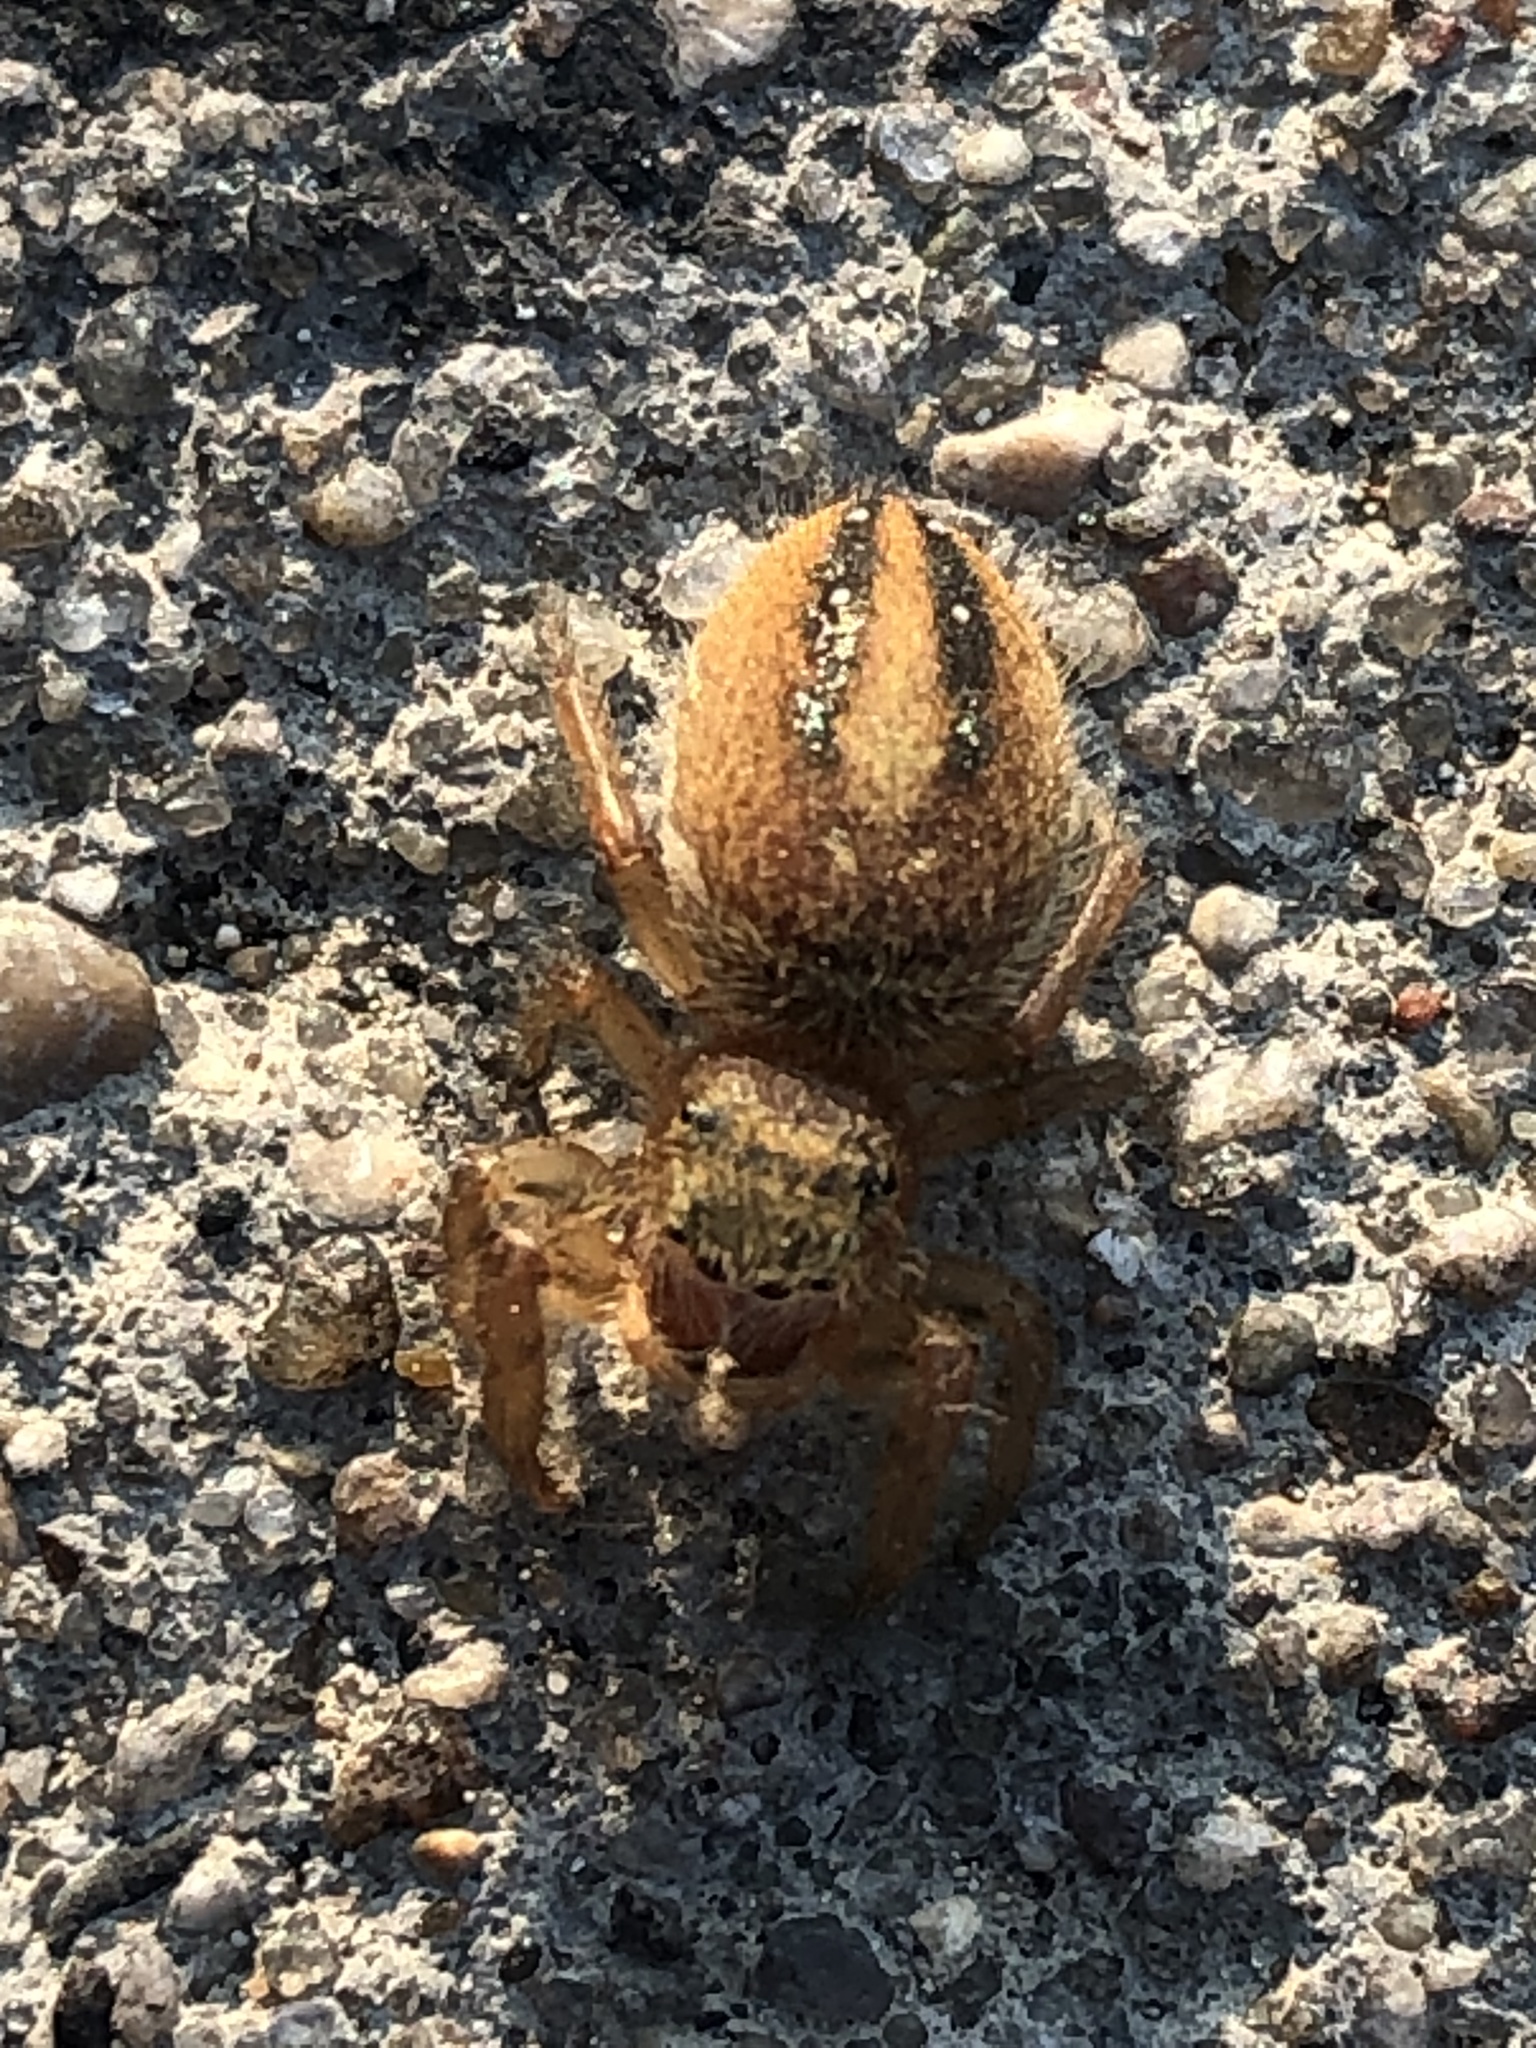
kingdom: Animalia
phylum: Arthropoda
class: Arachnida
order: Araneae
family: Salticidae
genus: Phidippus
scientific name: Phidippus pius
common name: Jumping spiders
